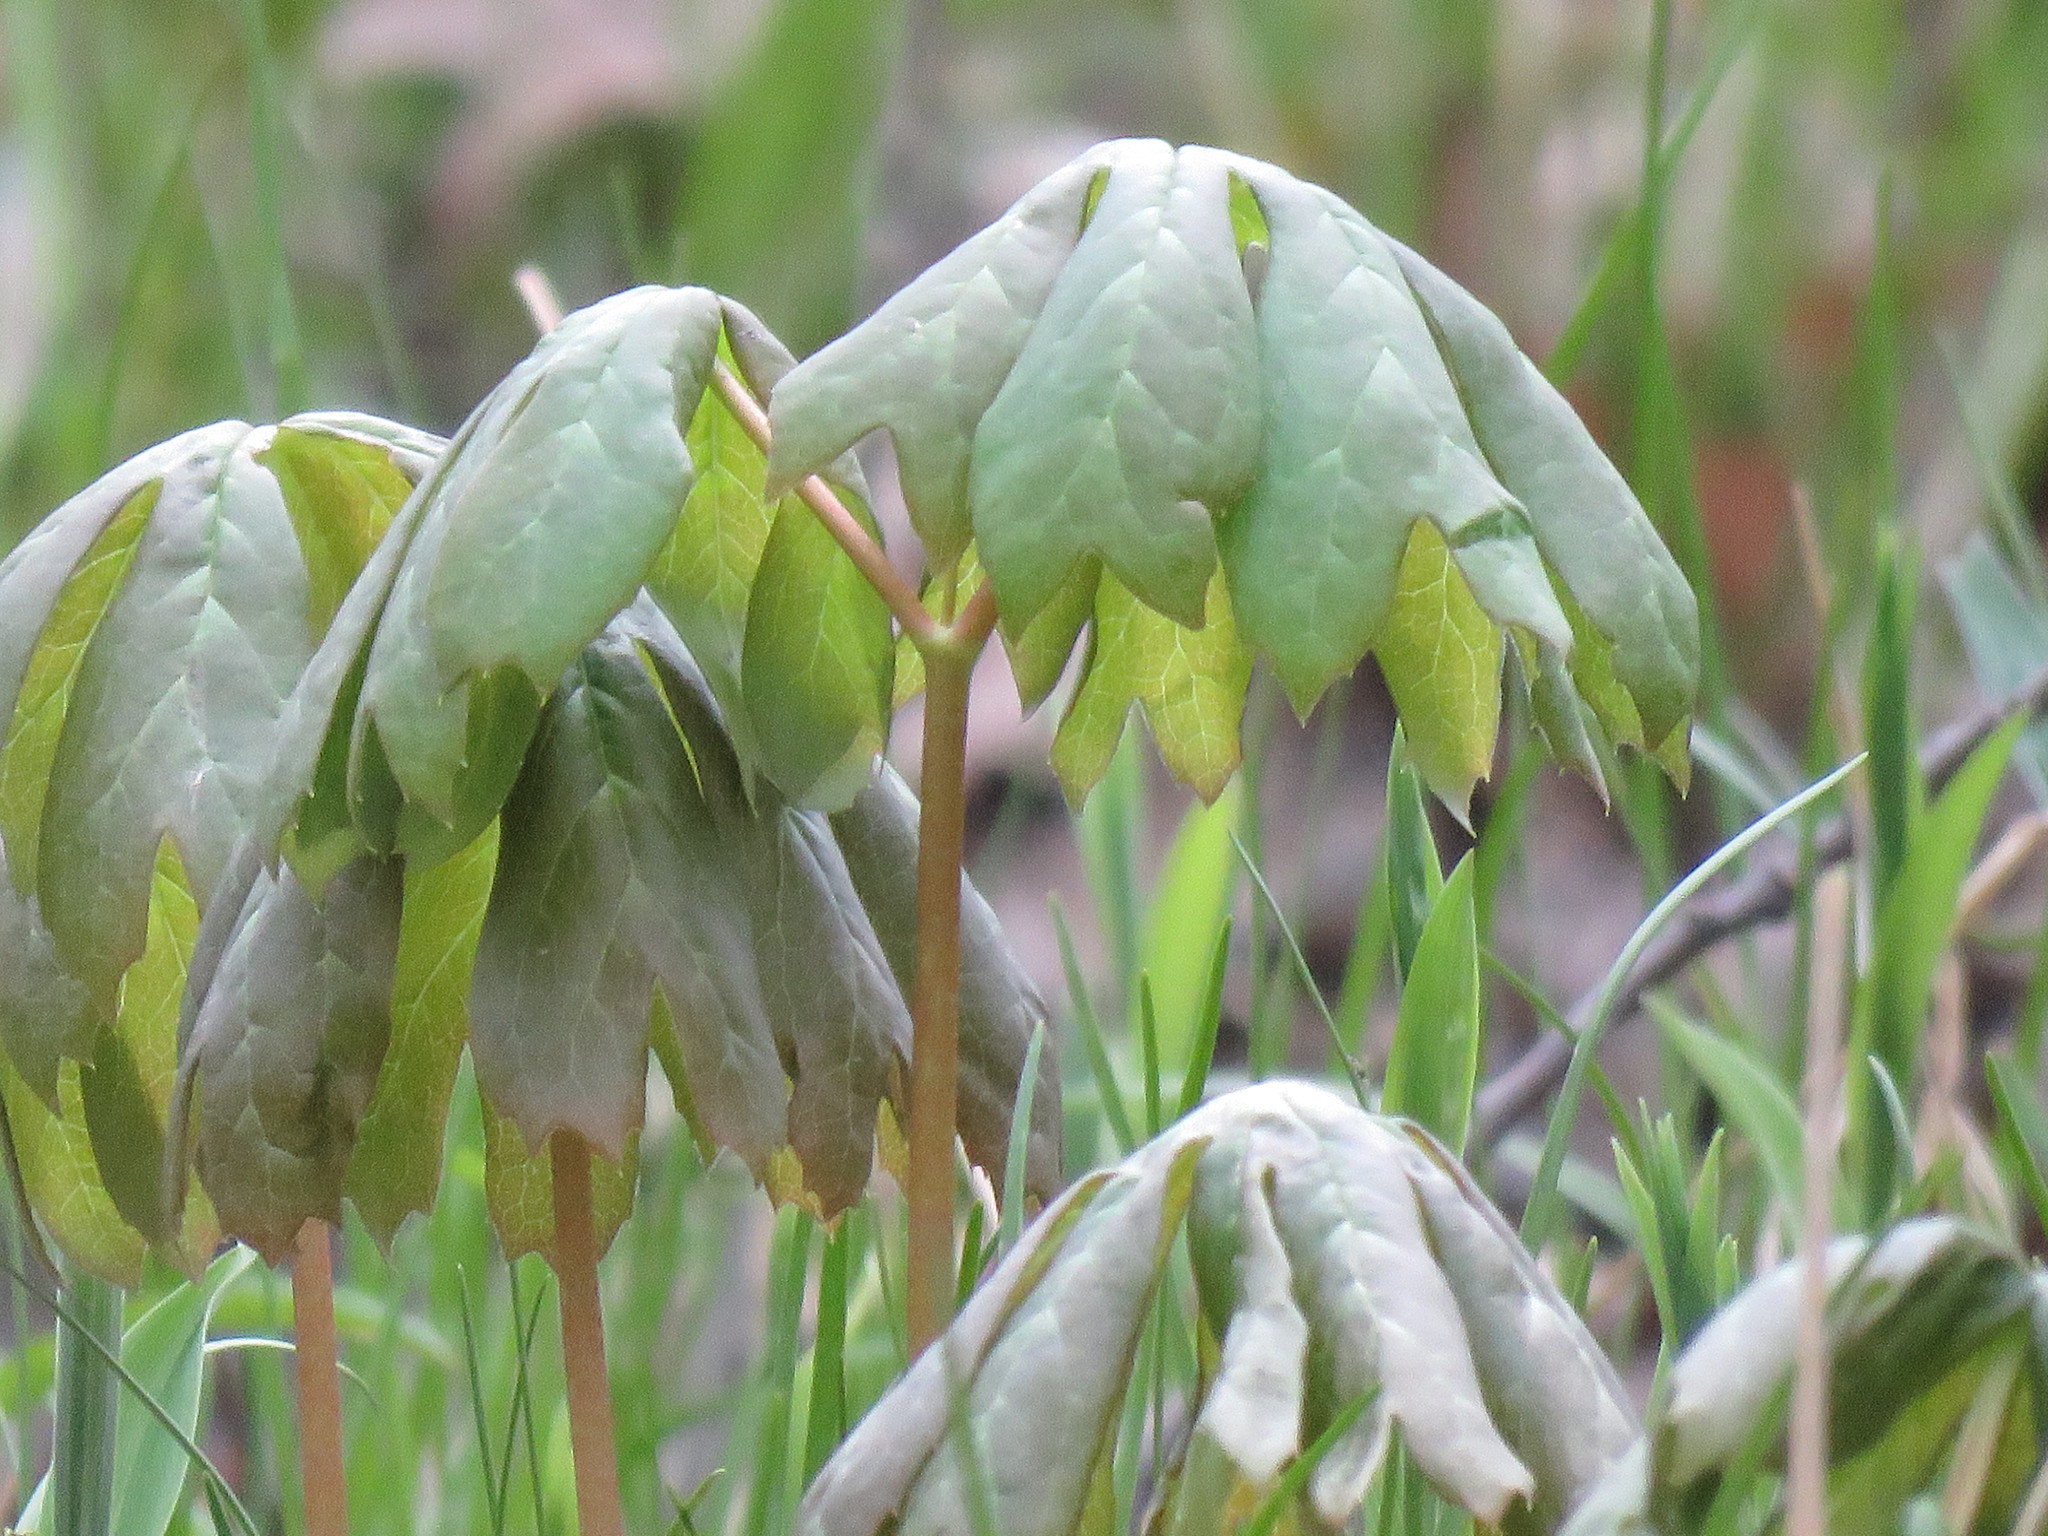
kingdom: Plantae
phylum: Tracheophyta
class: Magnoliopsida
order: Ranunculales
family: Berberidaceae
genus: Podophyllum
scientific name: Podophyllum peltatum
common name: Wild mandrake
